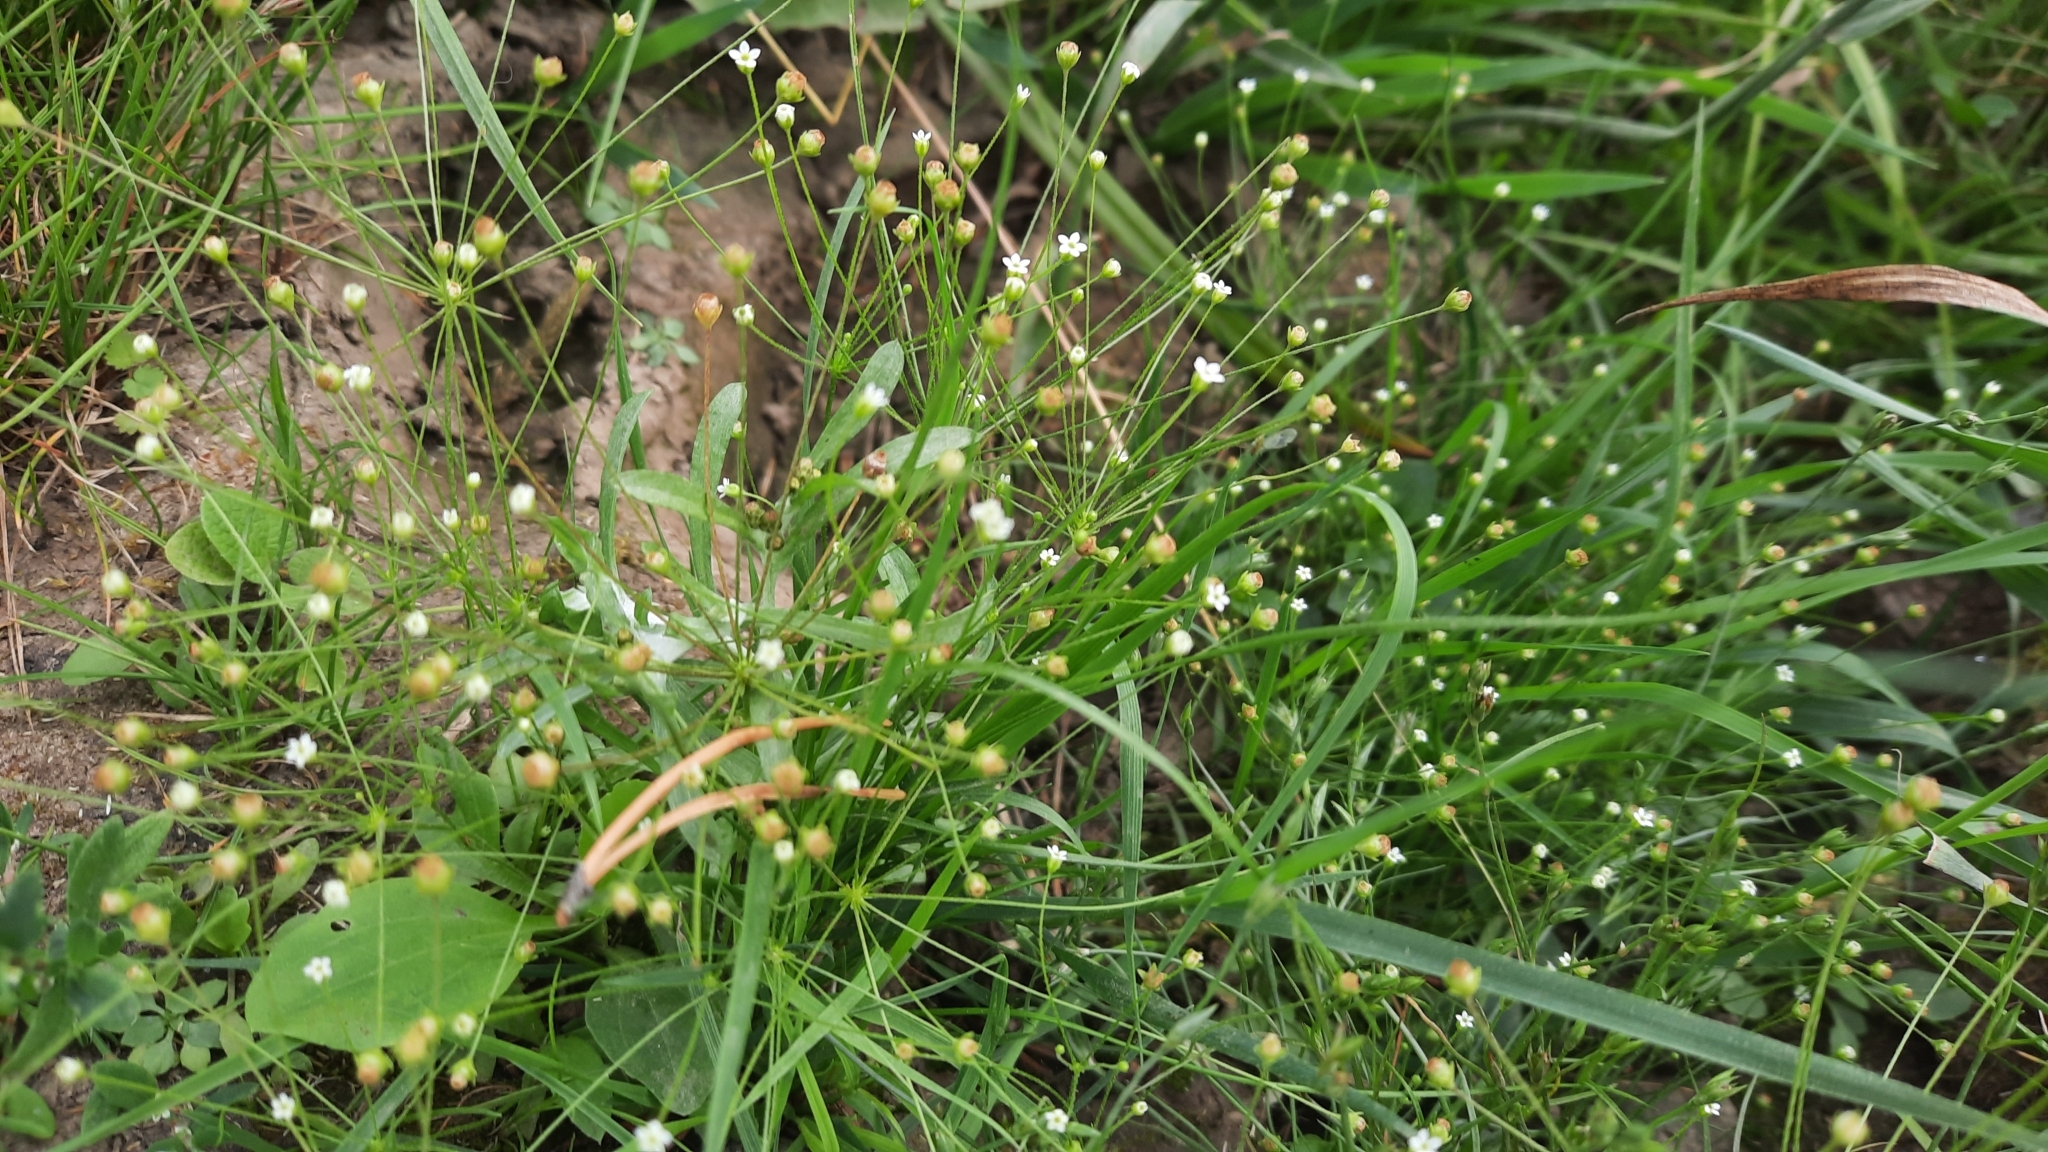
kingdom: Plantae
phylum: Tracheophyta
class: Magnoliopsida
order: Ericales
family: Primulaceae
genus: Androsace
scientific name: Androsace filiformis
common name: Filiform rock jasmine
